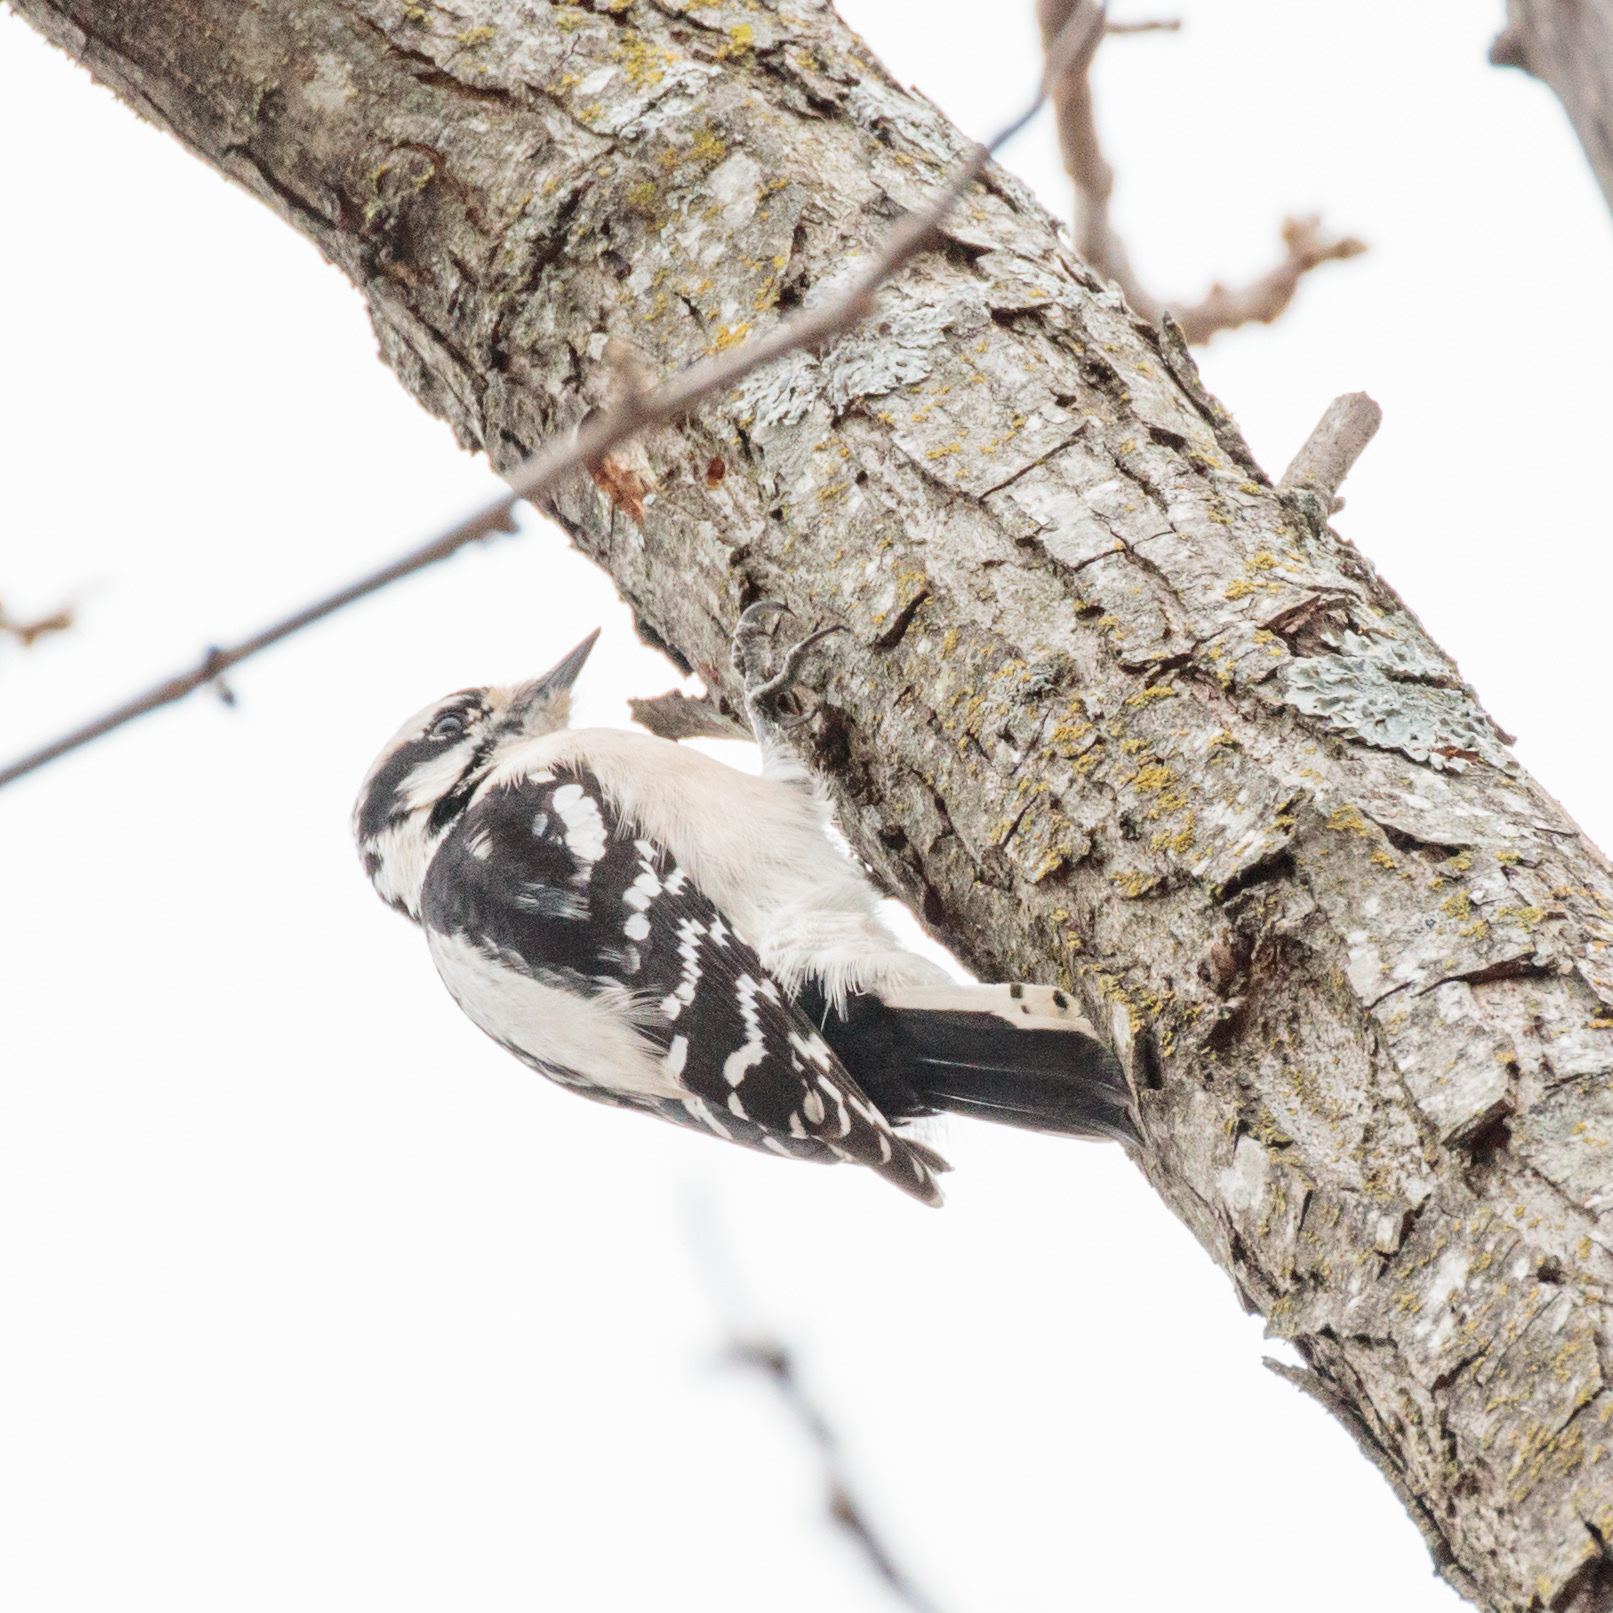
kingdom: Animalia
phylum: Chordata
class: Aves
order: Piciformes
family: Picidae
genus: Dryobates
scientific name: Dryobates pubescens
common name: Downy woodpecker
